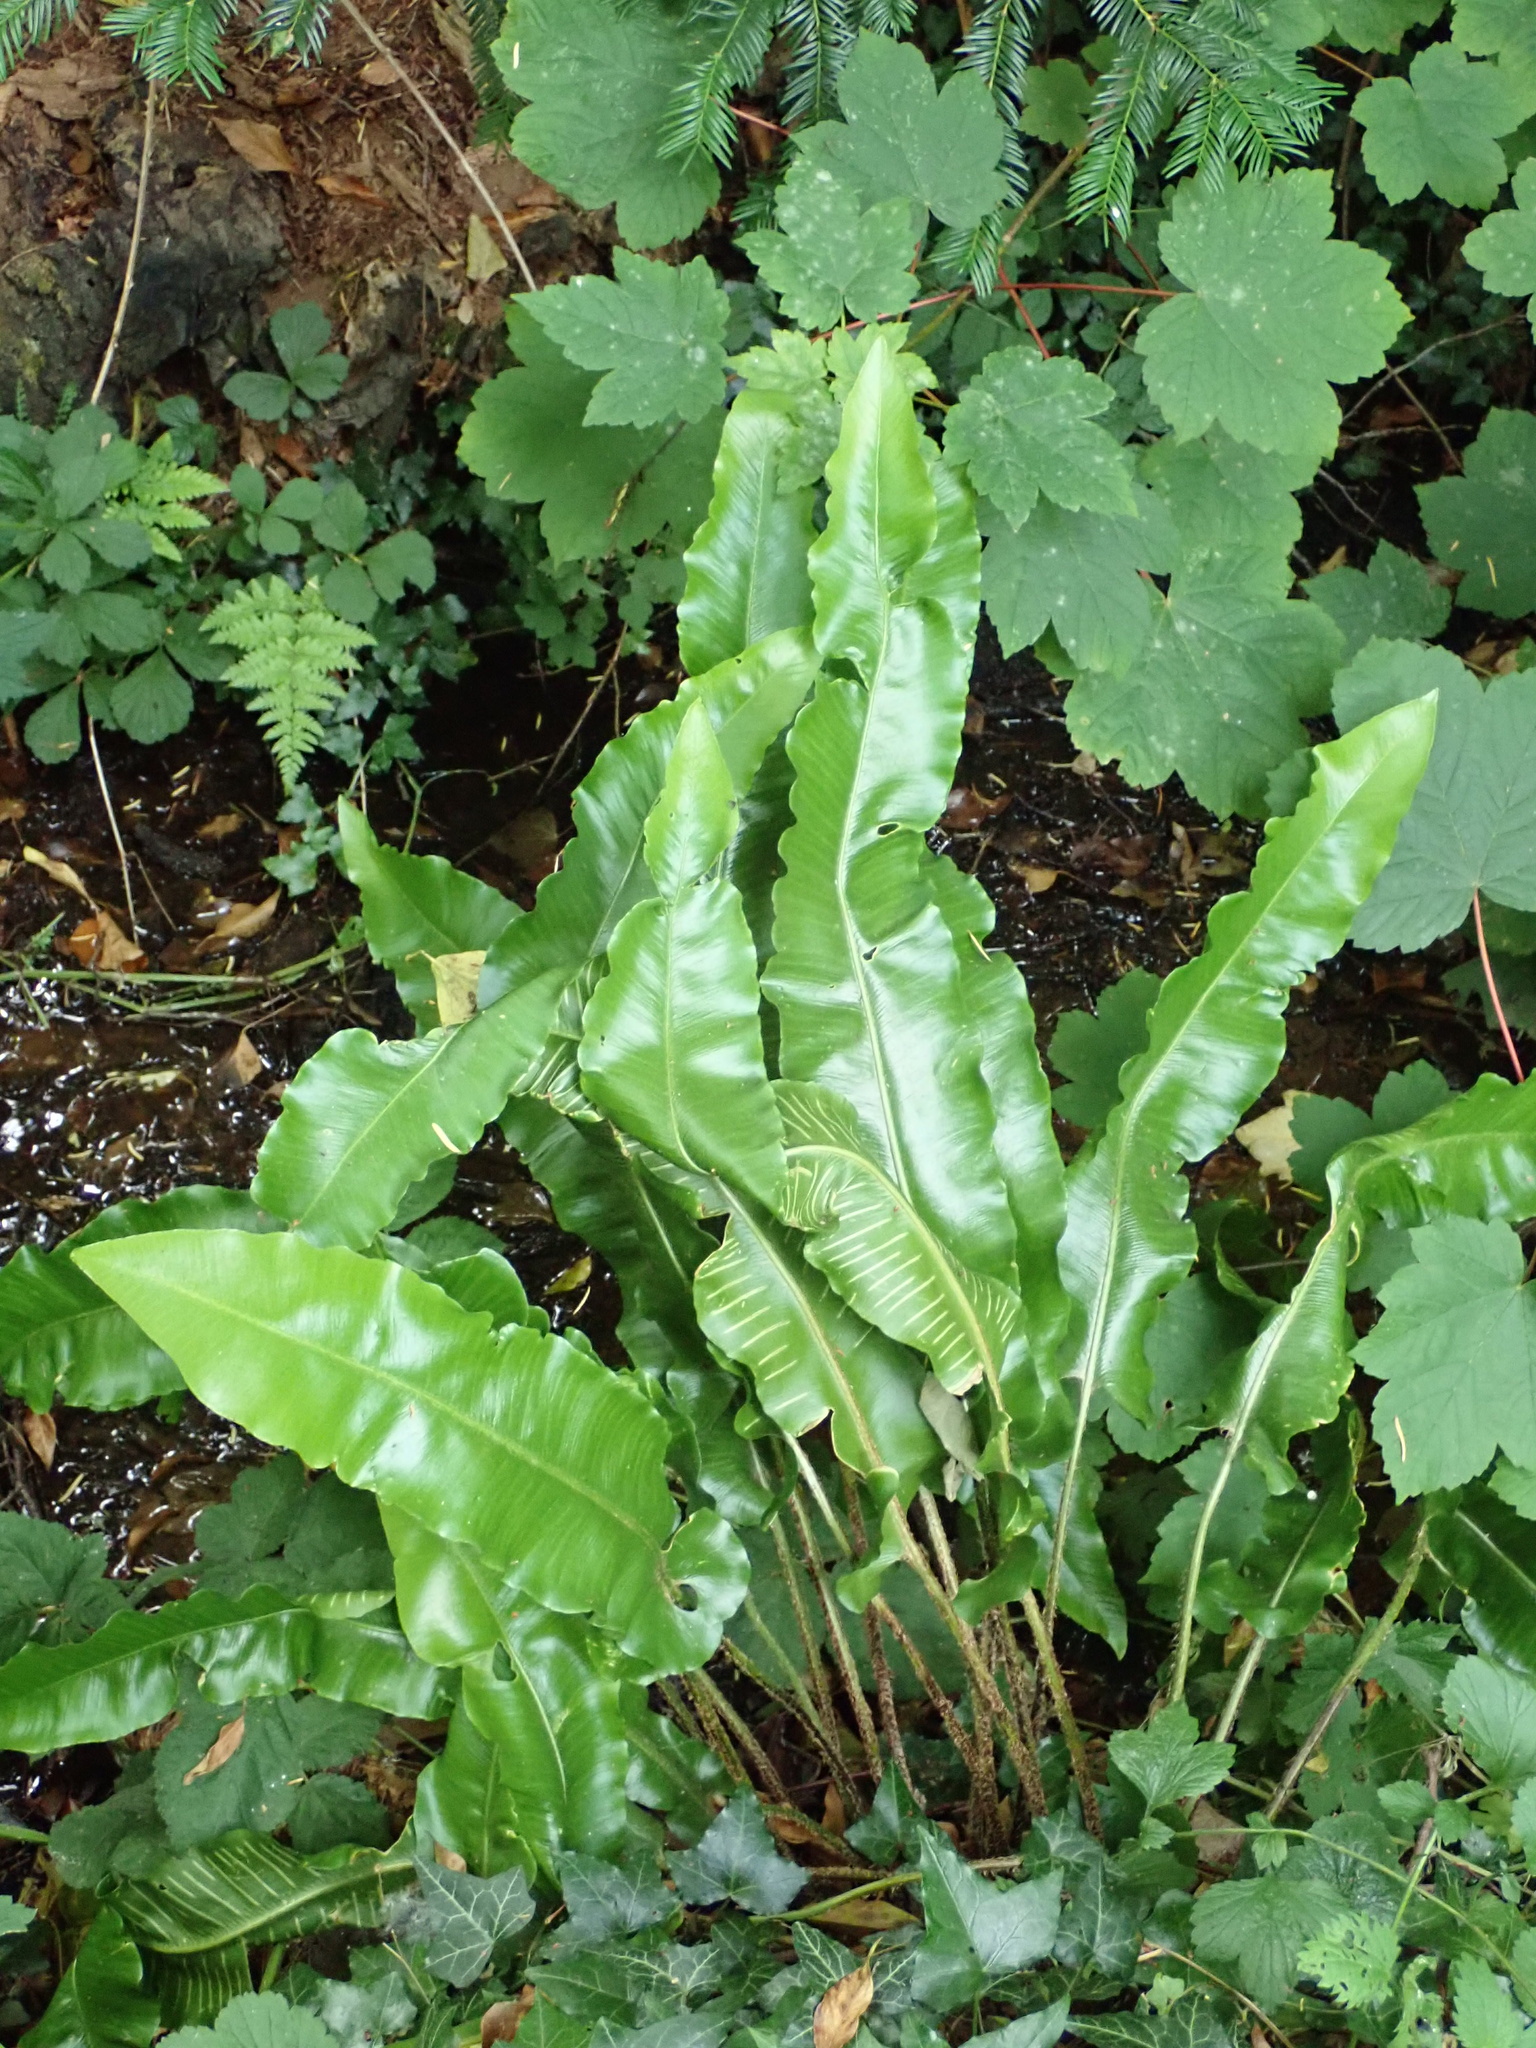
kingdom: Plantae
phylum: Tracheophyta
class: Polypodiopsida
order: Polypodiales
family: Aspleniaceae
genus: Asplenium
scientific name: Asplenium scolopendrium
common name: Hart's-tongue fern
